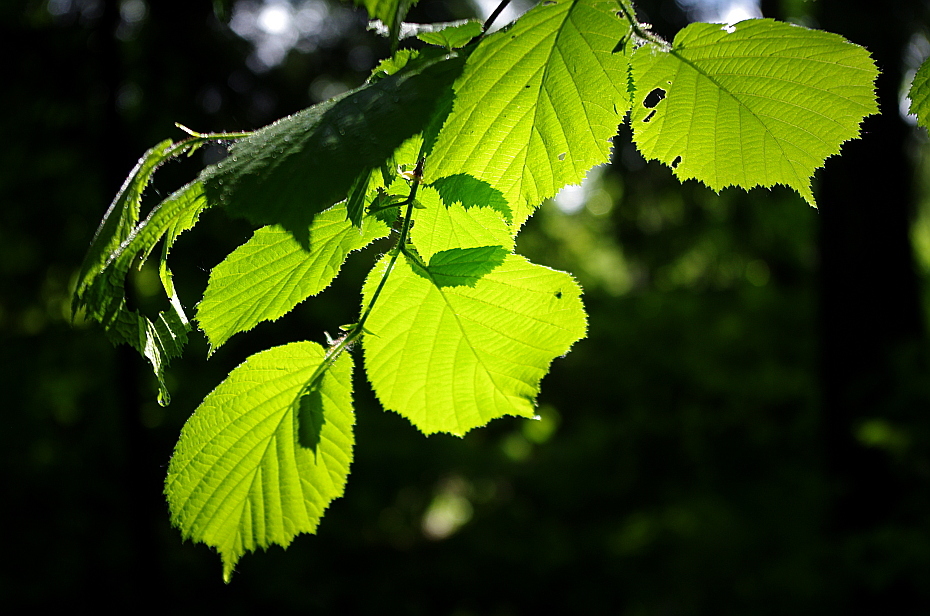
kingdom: Plantae
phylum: Tracheophyta
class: Magnoliopsida
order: Fagales
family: Betulaceae
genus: Corylus
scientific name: Corylus avellana
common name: European hazel
